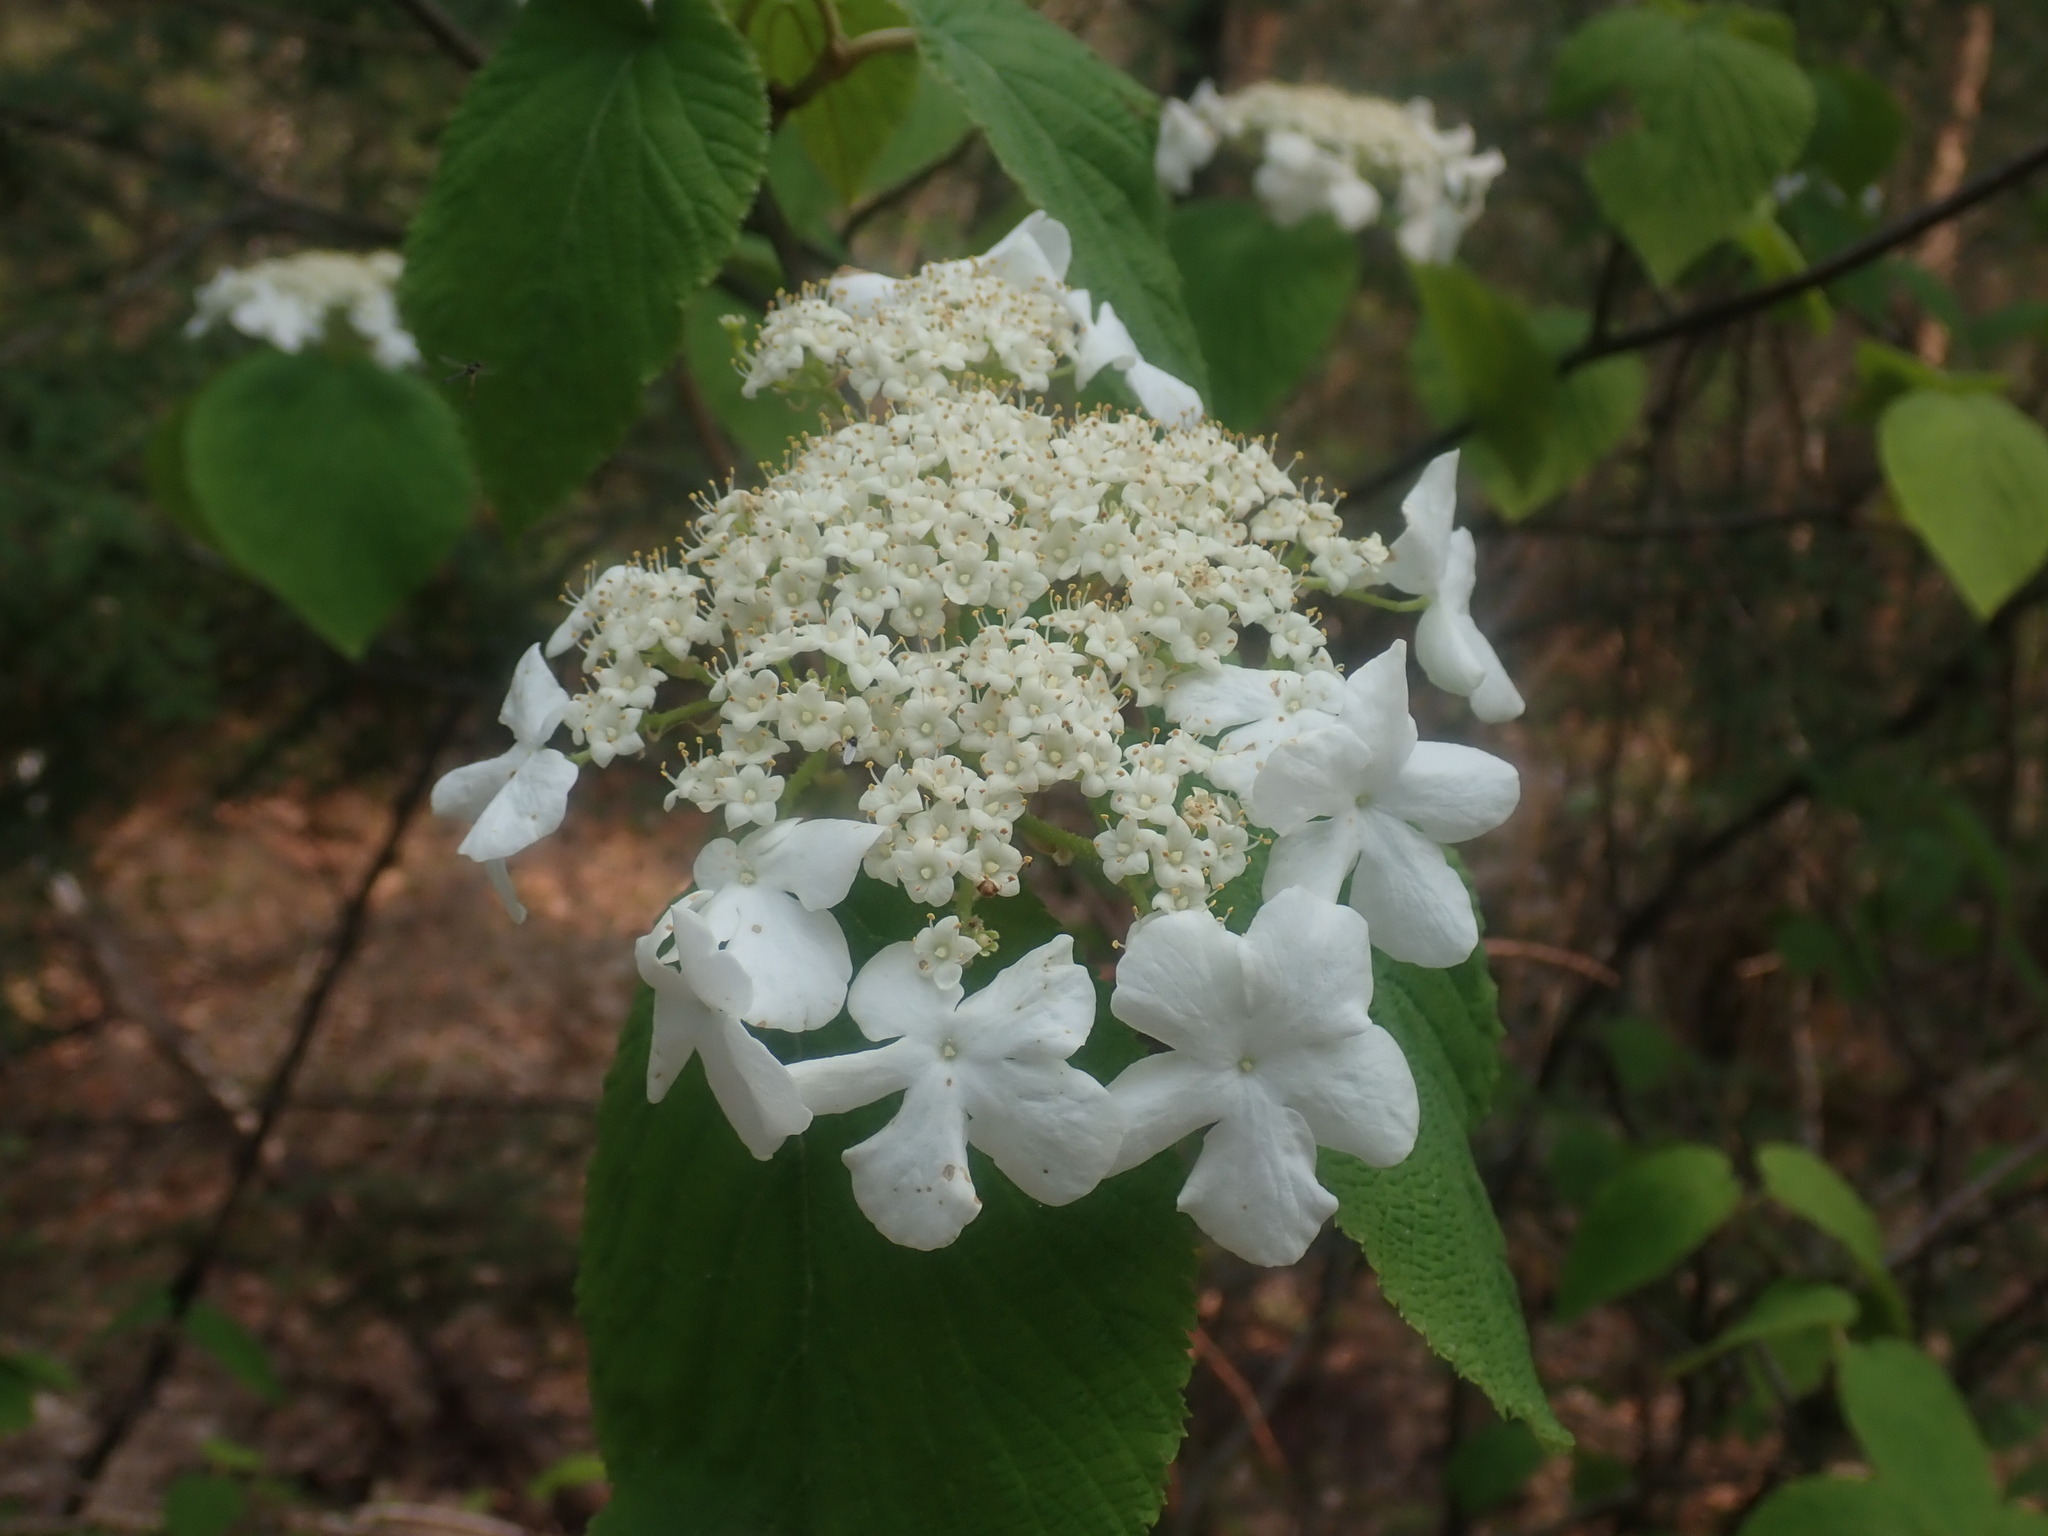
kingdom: Plantae
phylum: Tracheophyta
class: Magnoliopsida
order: Dipsacales
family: Viburnaceae
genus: Viburnum
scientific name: Viburnum lantanoides
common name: Hobblebush
